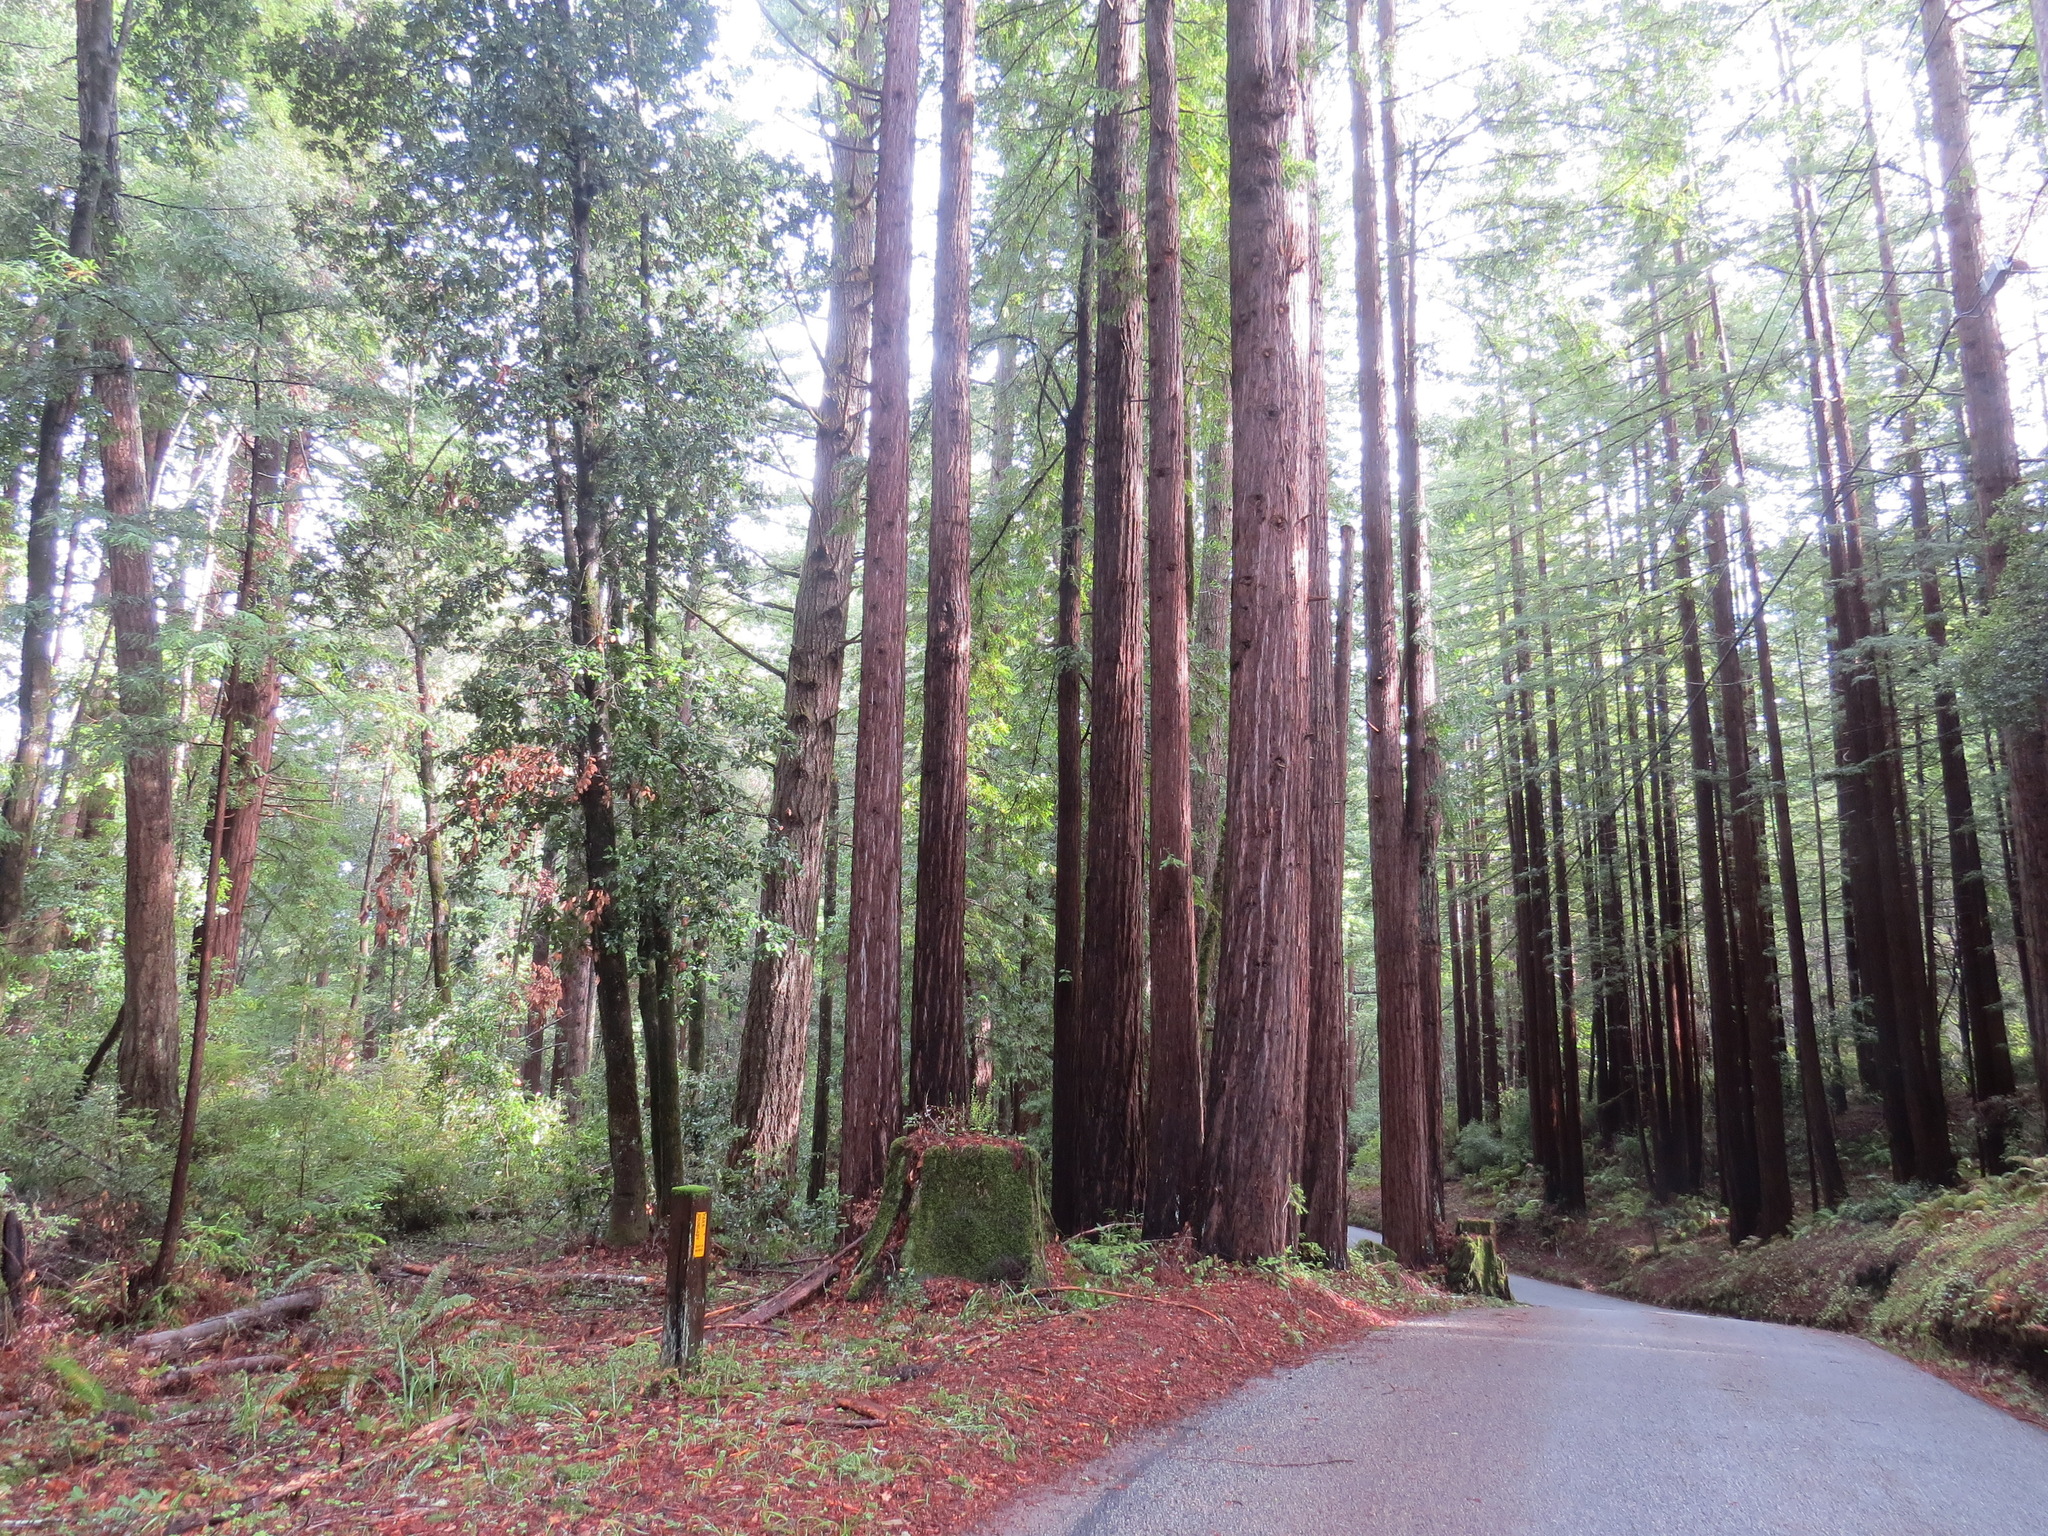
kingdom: Plantae
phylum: Tracheophyta
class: Pinopsida
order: Pinales
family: Cupressaceae
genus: Sequoia
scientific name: Sequoia sempervirens
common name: Coast redwood
